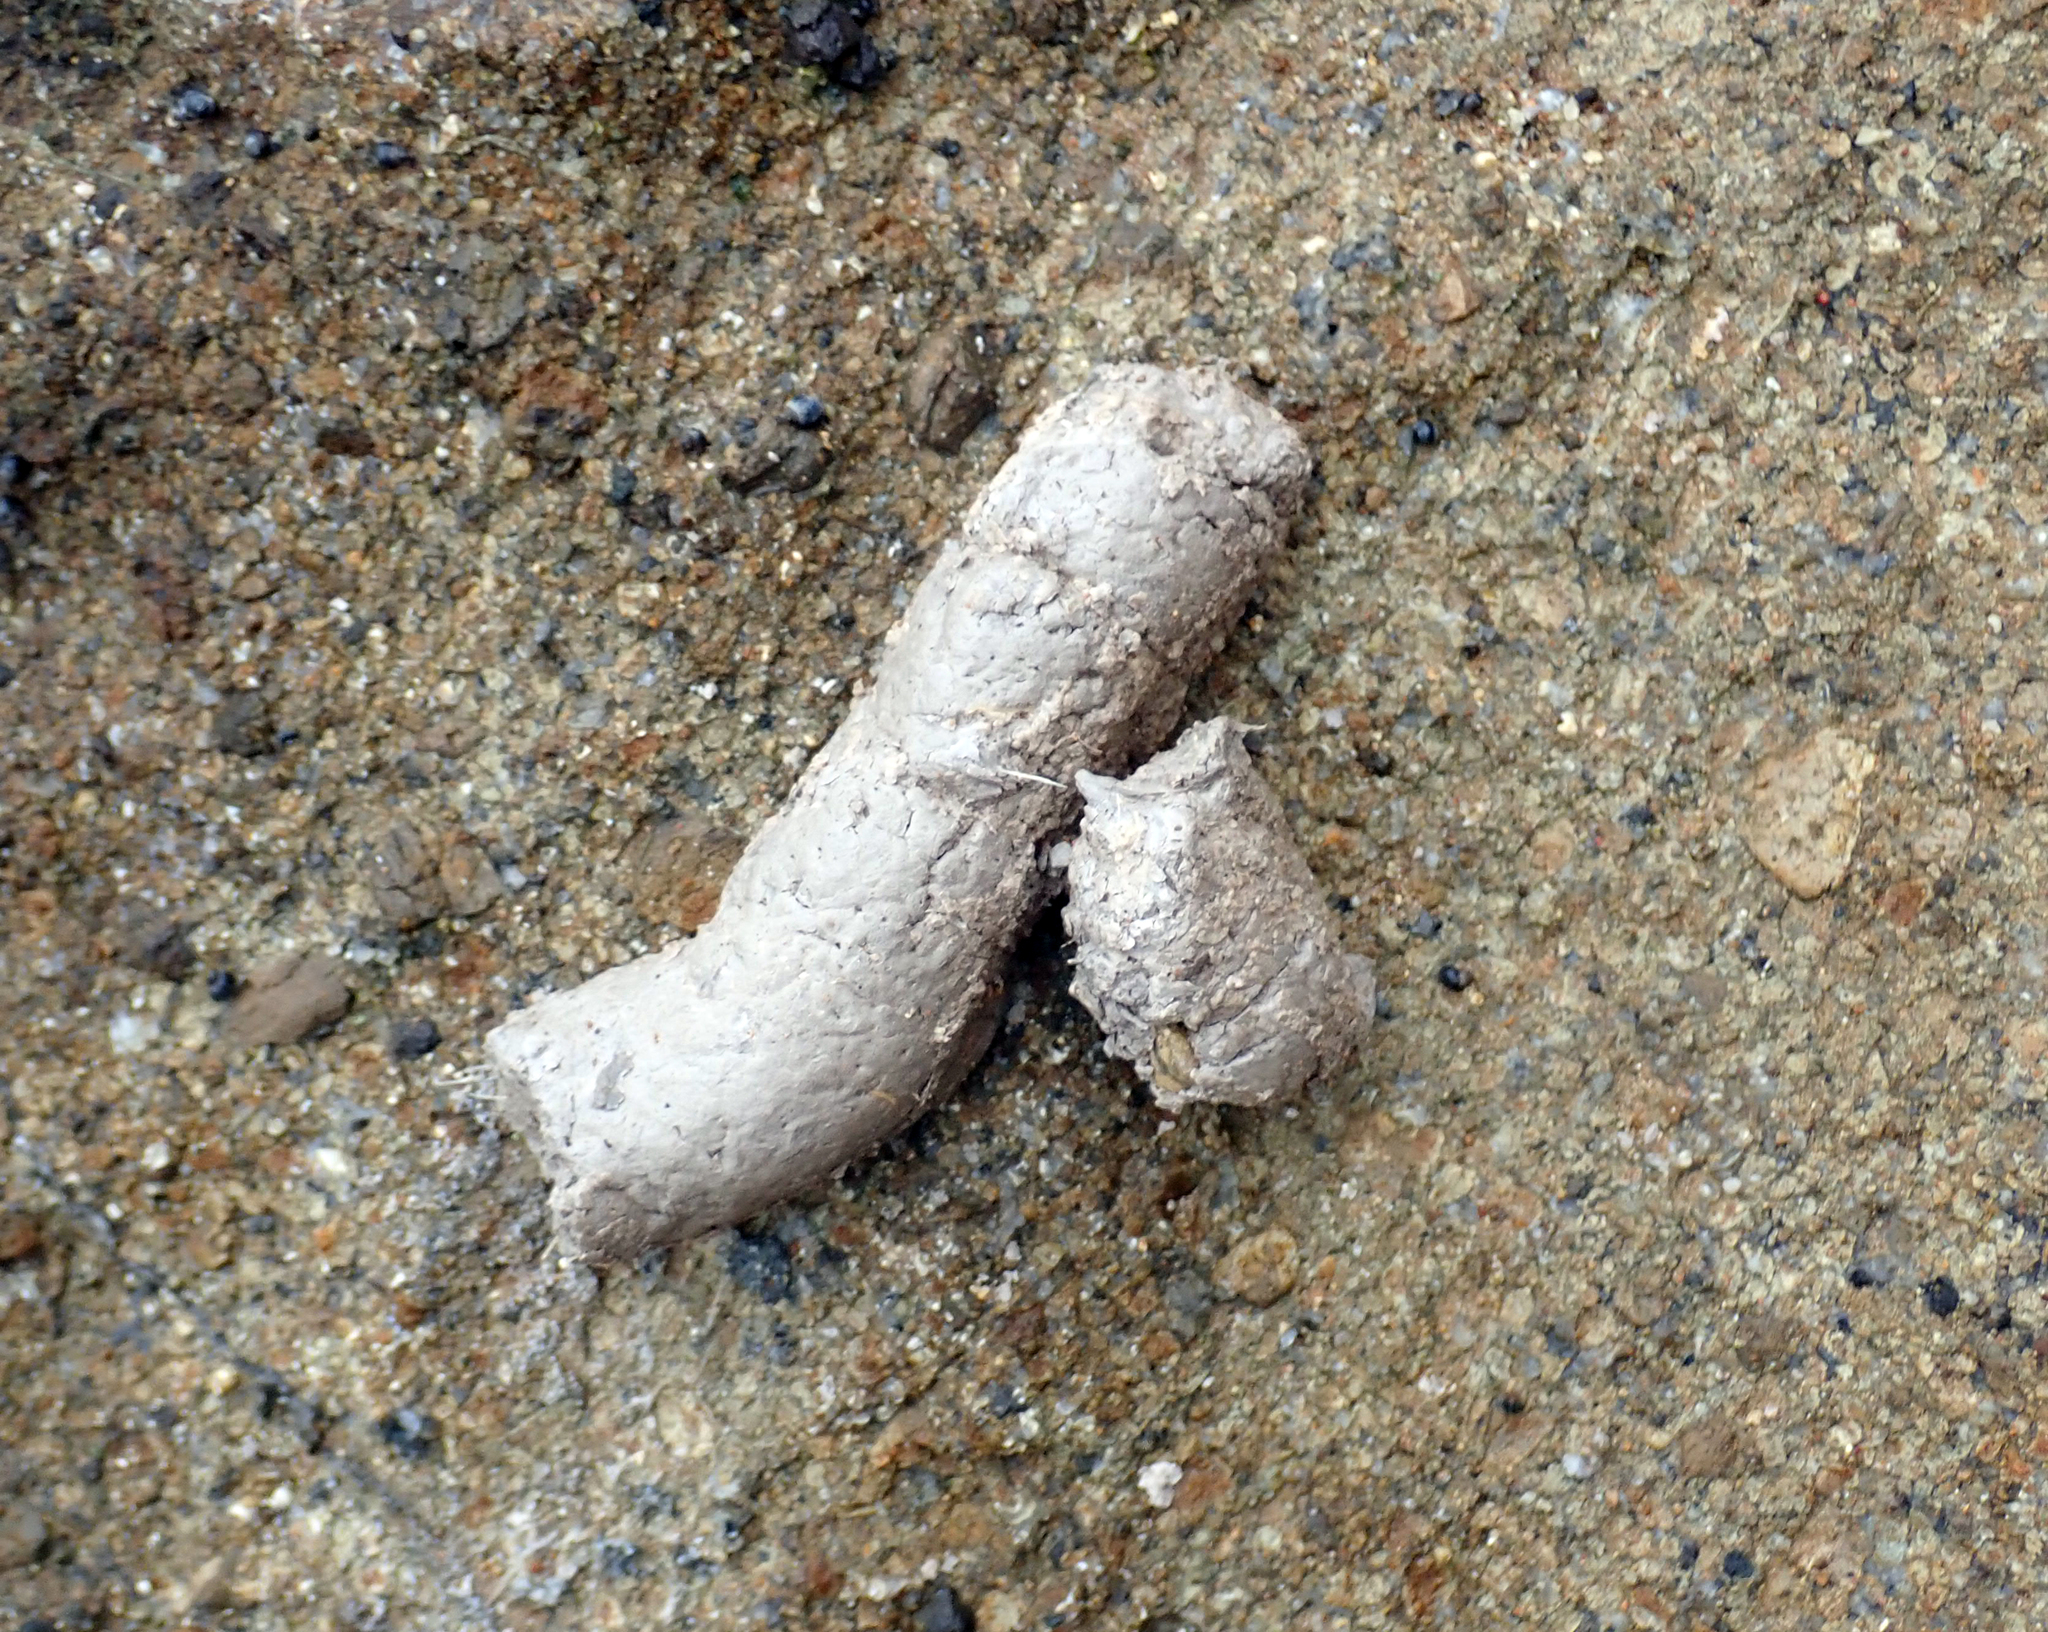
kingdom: Animalia
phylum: Chordata
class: Mammalia
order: Carnivora
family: Otariidae
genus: Arctocephalus
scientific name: Arctocephalus forsteri
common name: New zealand fur seal
